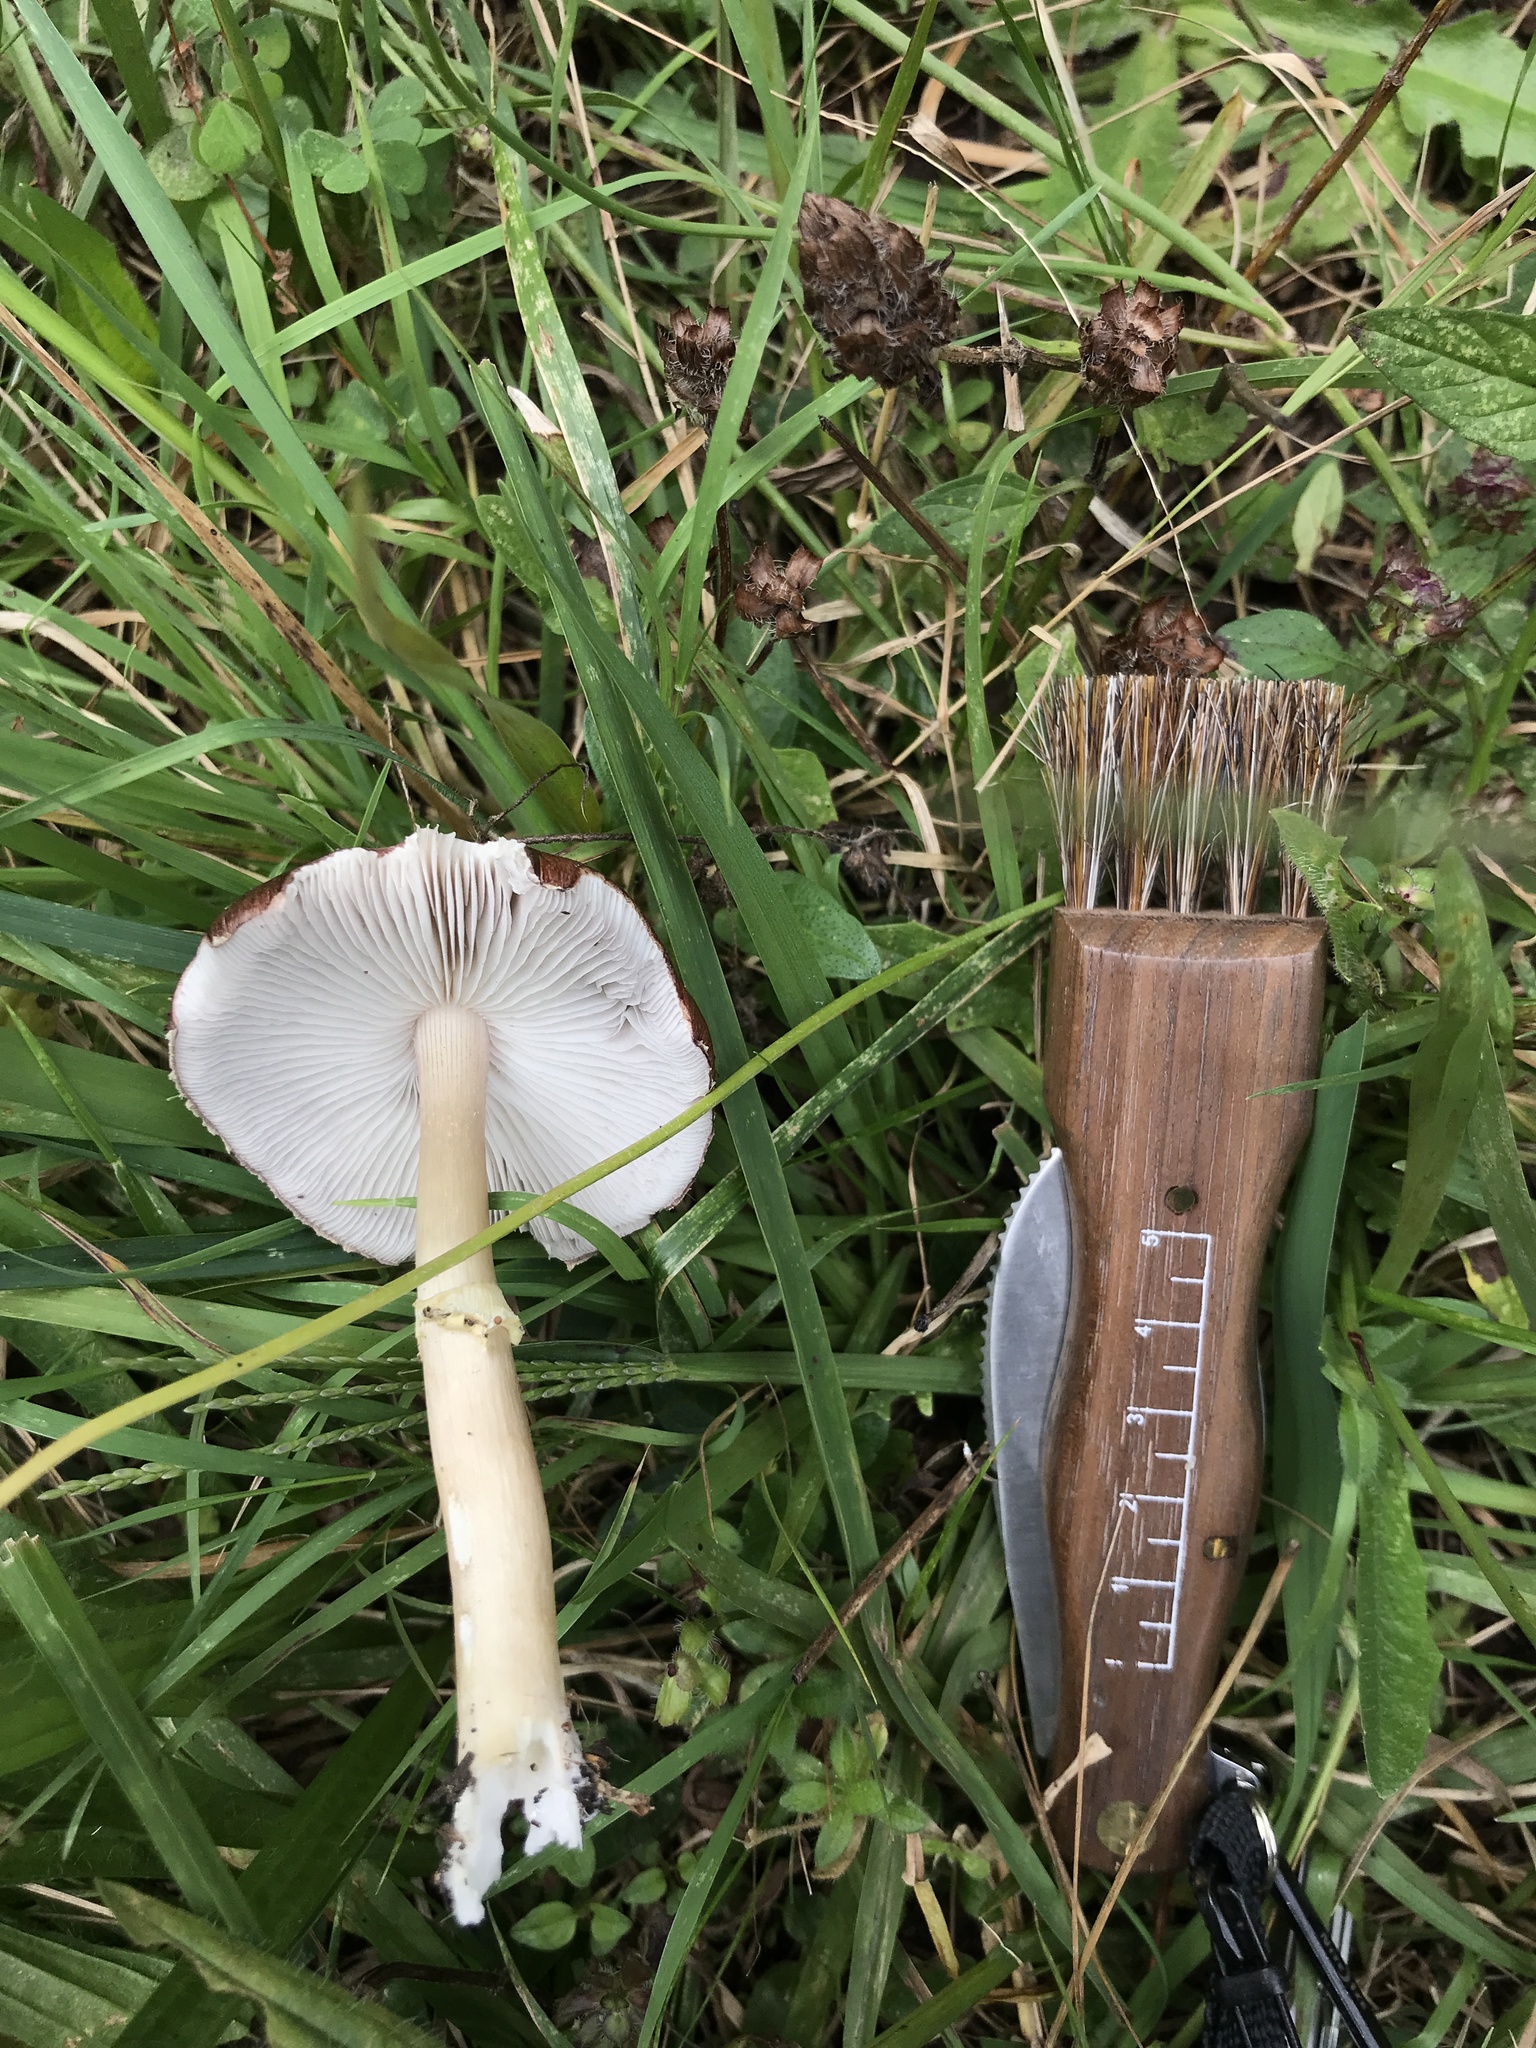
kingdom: Fungi
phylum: Basidiomycota
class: Agaricomycetes
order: Agaricales
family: Strophariaceae
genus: Stropharia
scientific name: Stropharia rugosoannulata
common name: Wine roundhead
